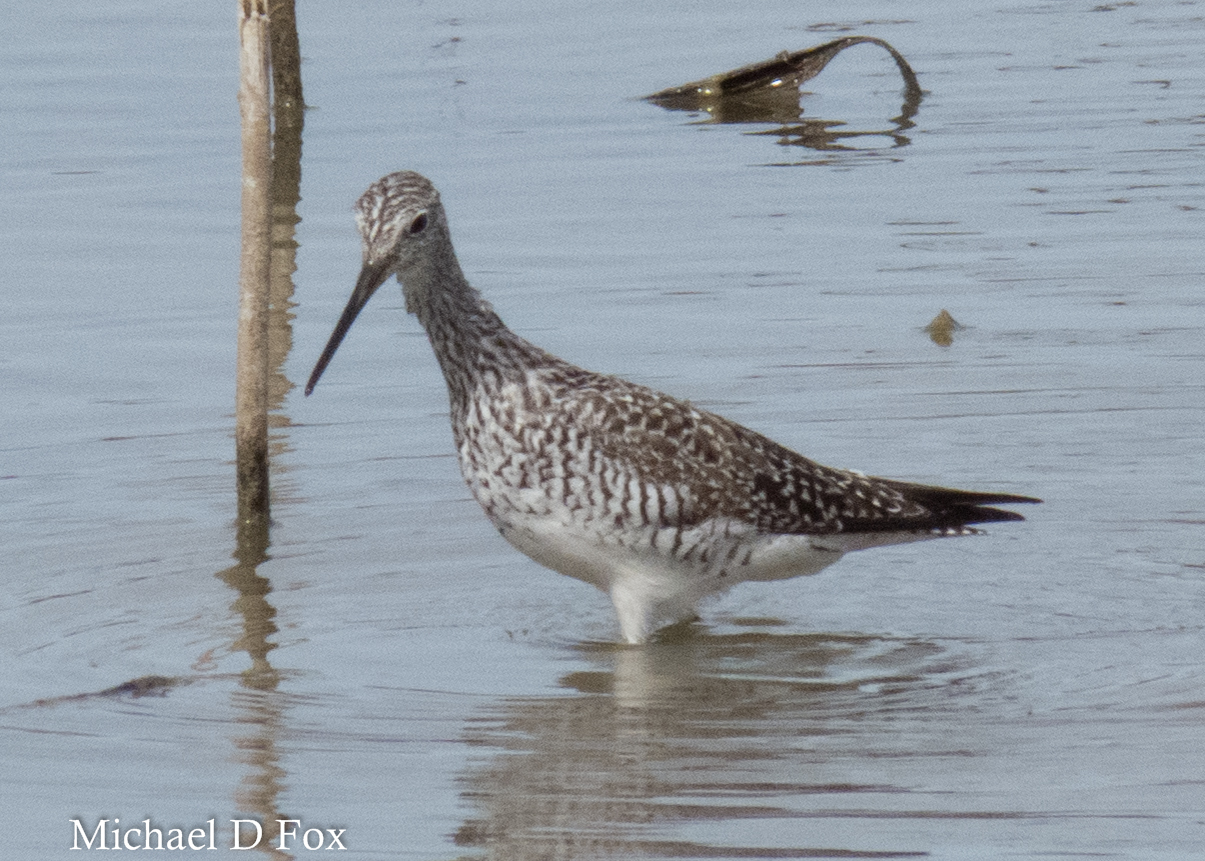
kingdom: Animalia
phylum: Chordata
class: Aves
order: Charadriiformes
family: Scolopacidae
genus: Tringa
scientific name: Tringa melanoleuca
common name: Greater yellowlegs
